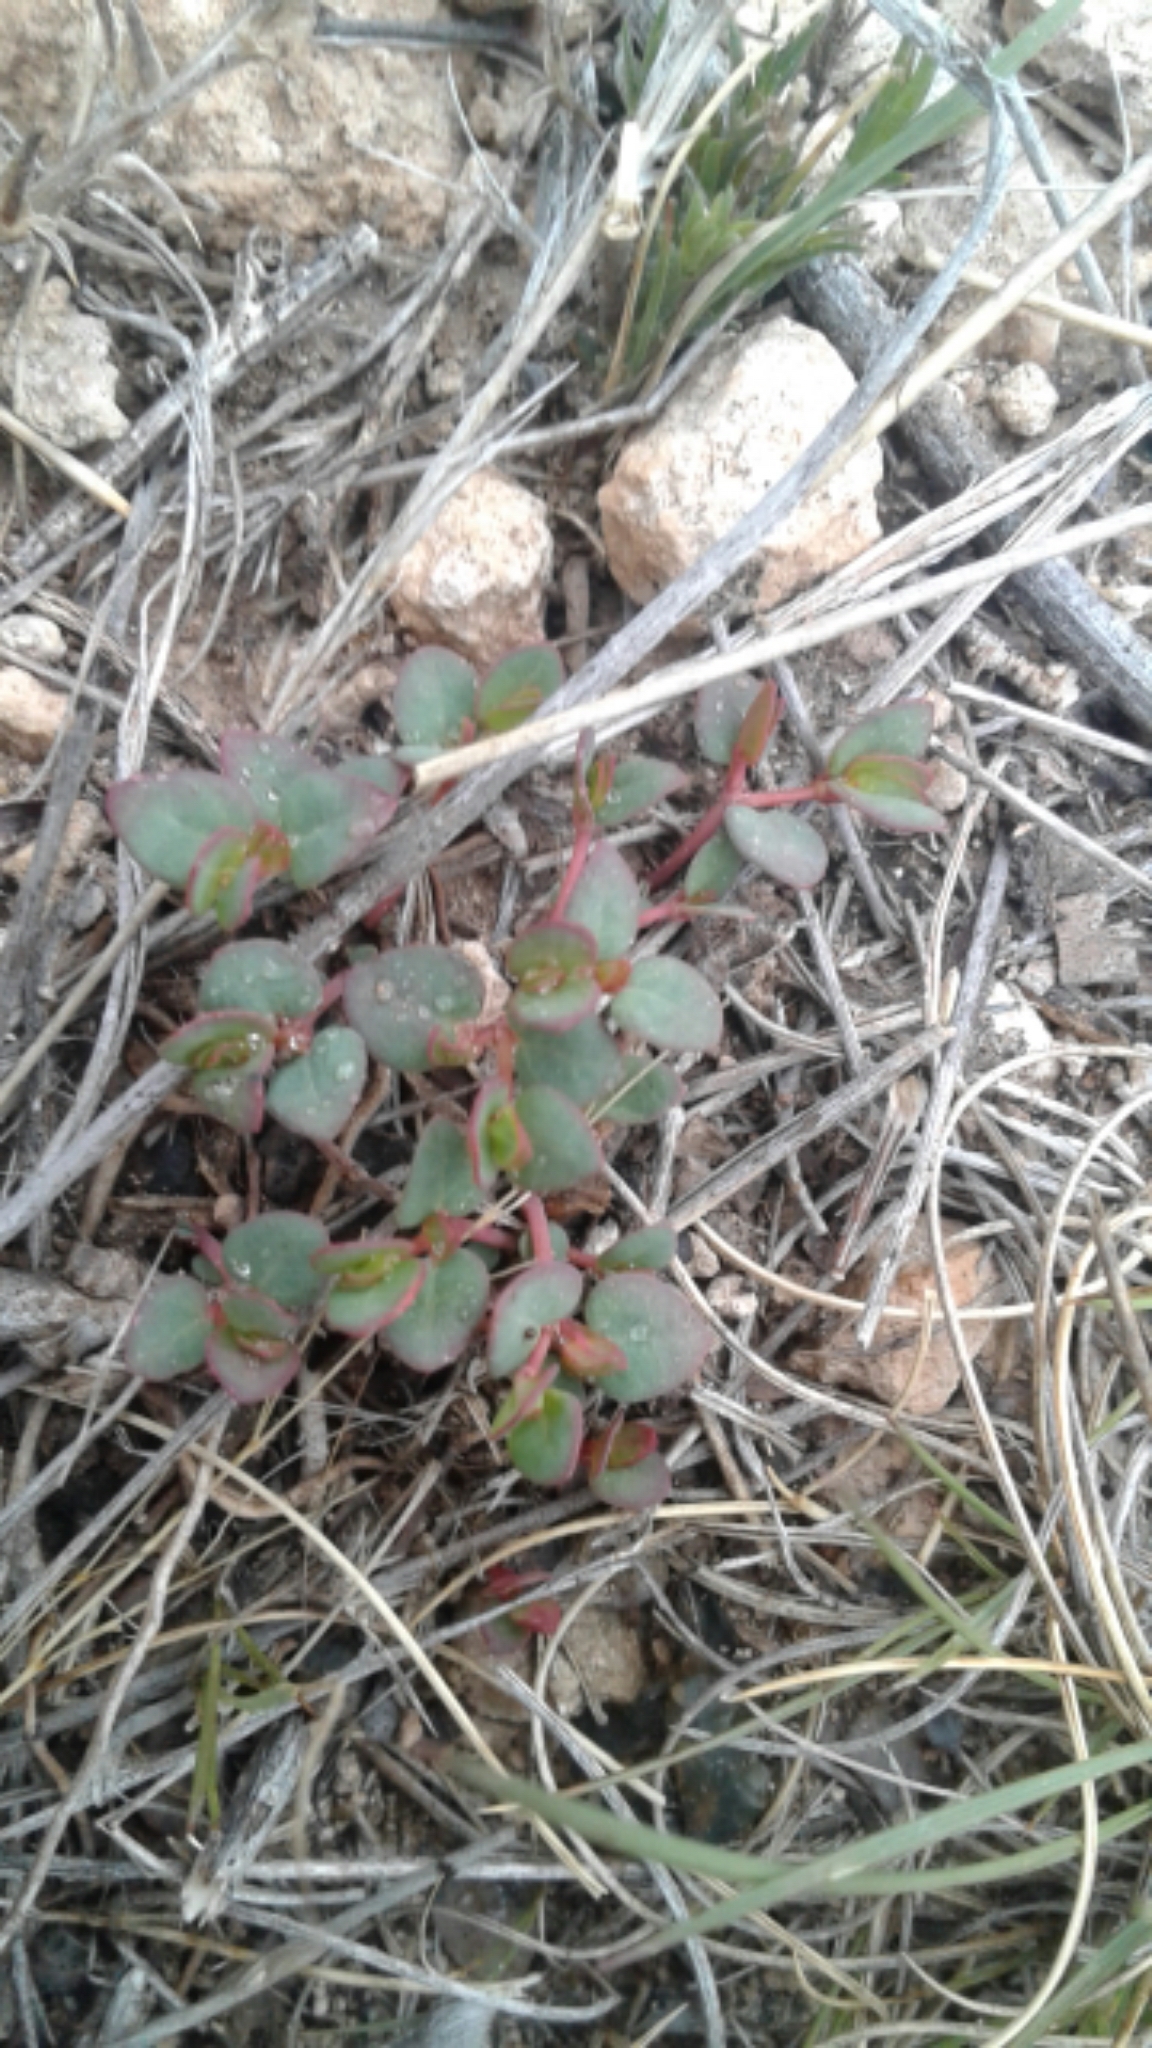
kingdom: Plantae
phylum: Tracheophyta
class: Magnoliopsida
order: Malpighiales
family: Euphorbiaceae
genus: Euphorbia
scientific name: Euphorbia fendleri
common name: Fendler's euphorbia
